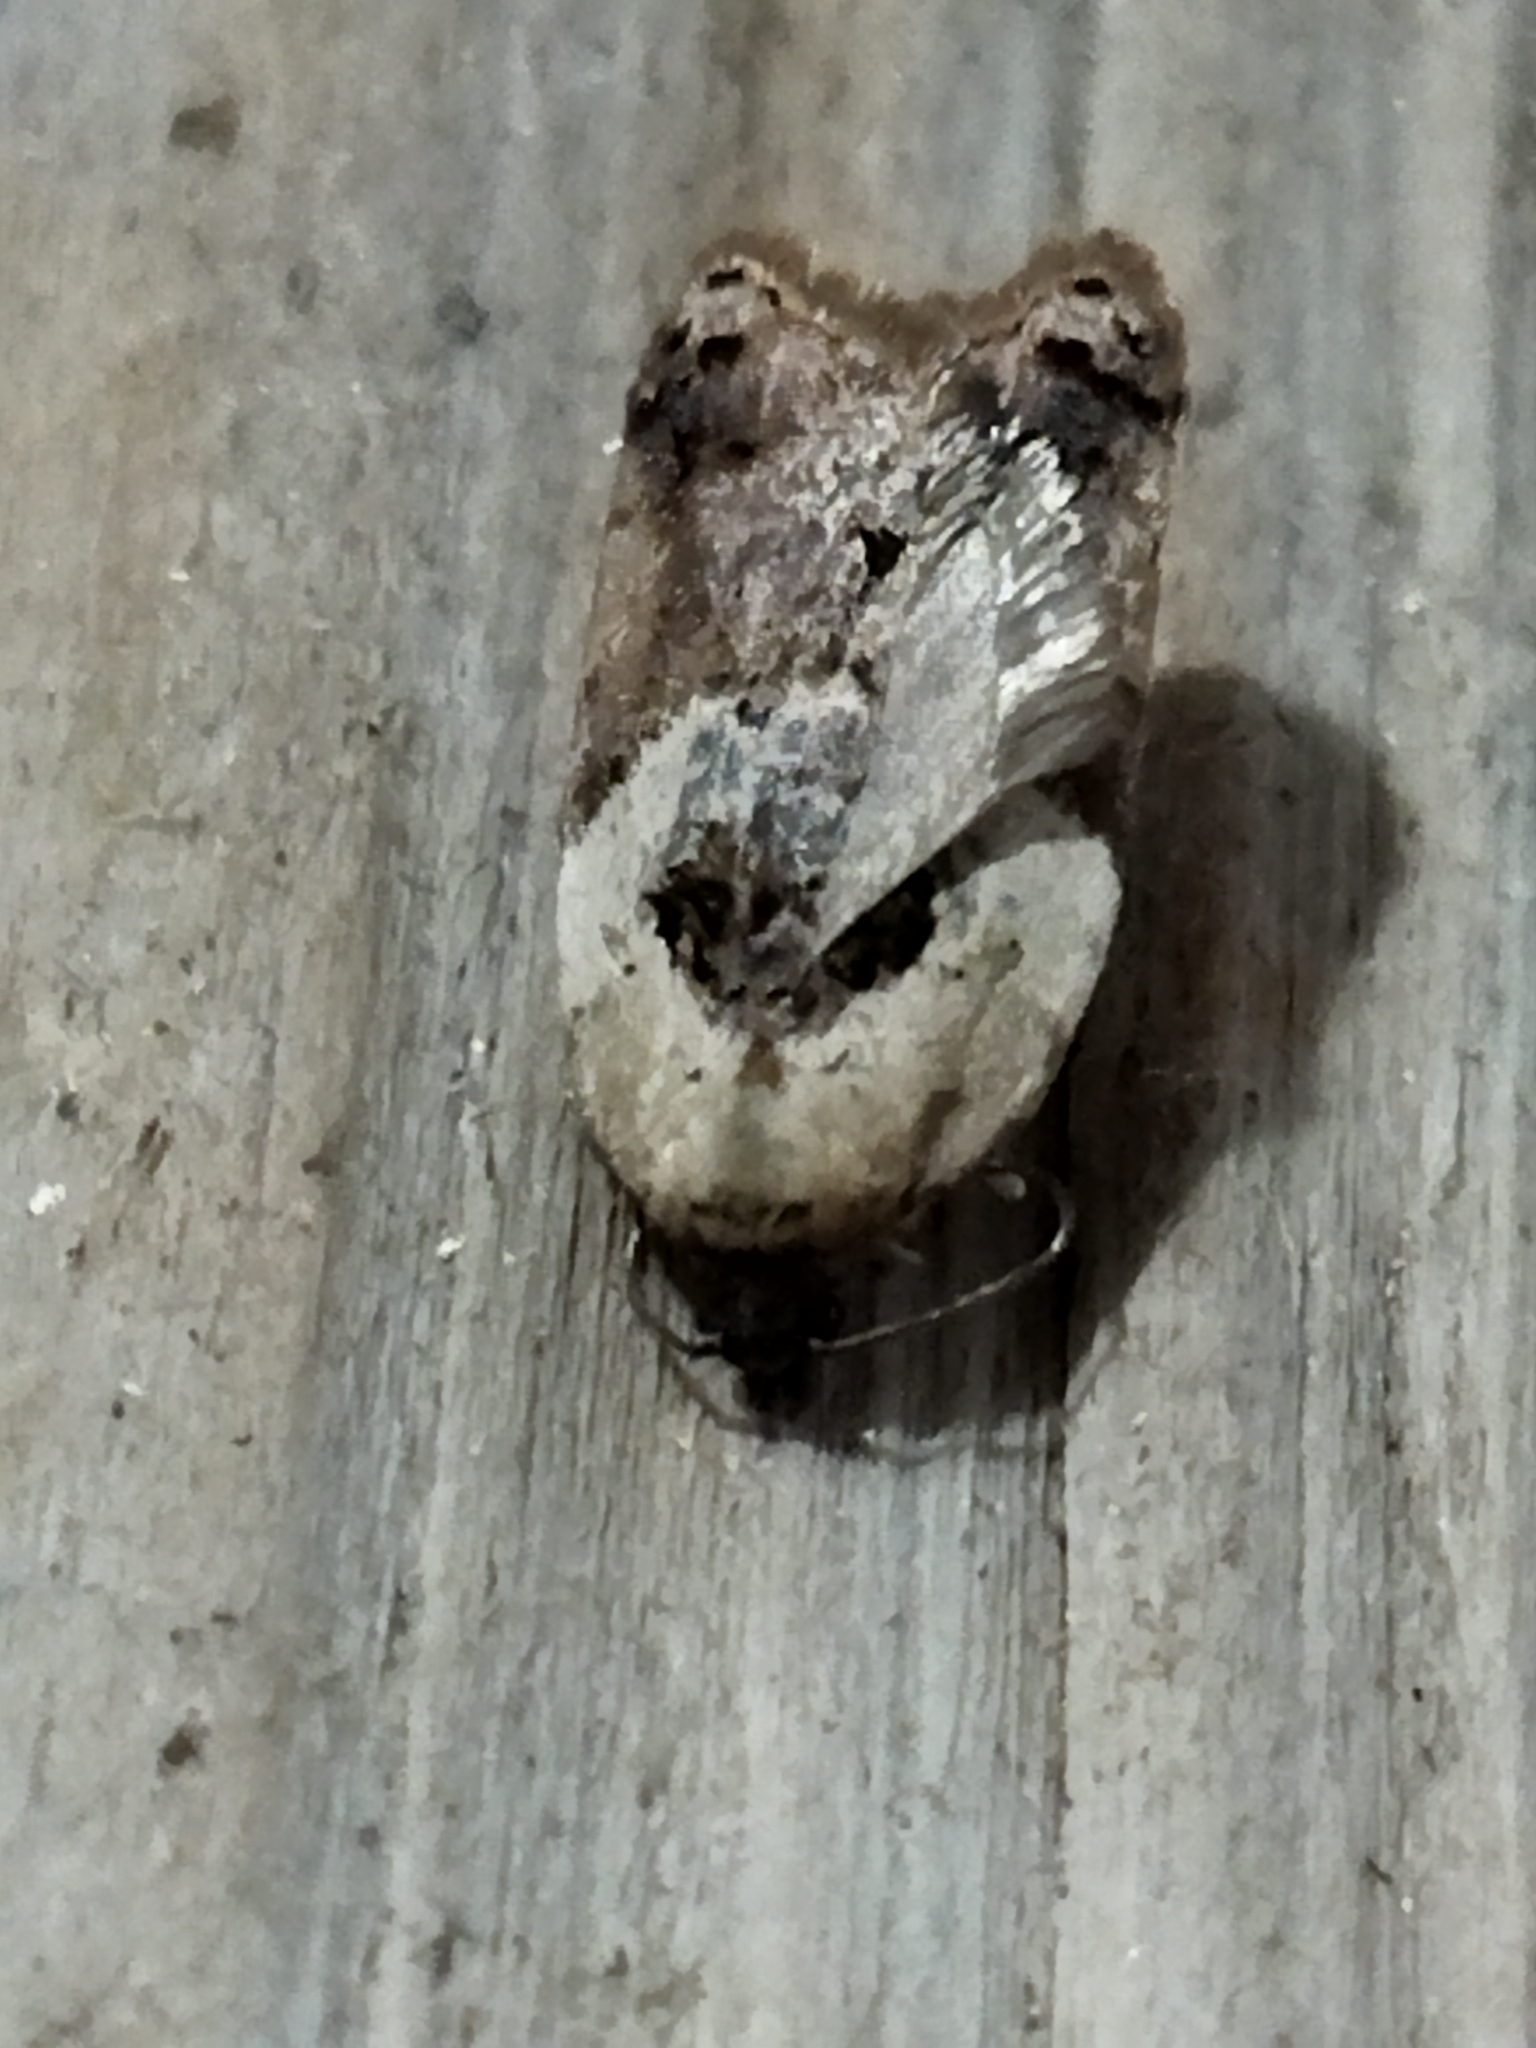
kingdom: Animalia
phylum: Arthropoda
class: Insecta
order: Lepidoptera
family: Tortricidae
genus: Acleris
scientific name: Acleris variegana
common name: Garden rose tortrix
